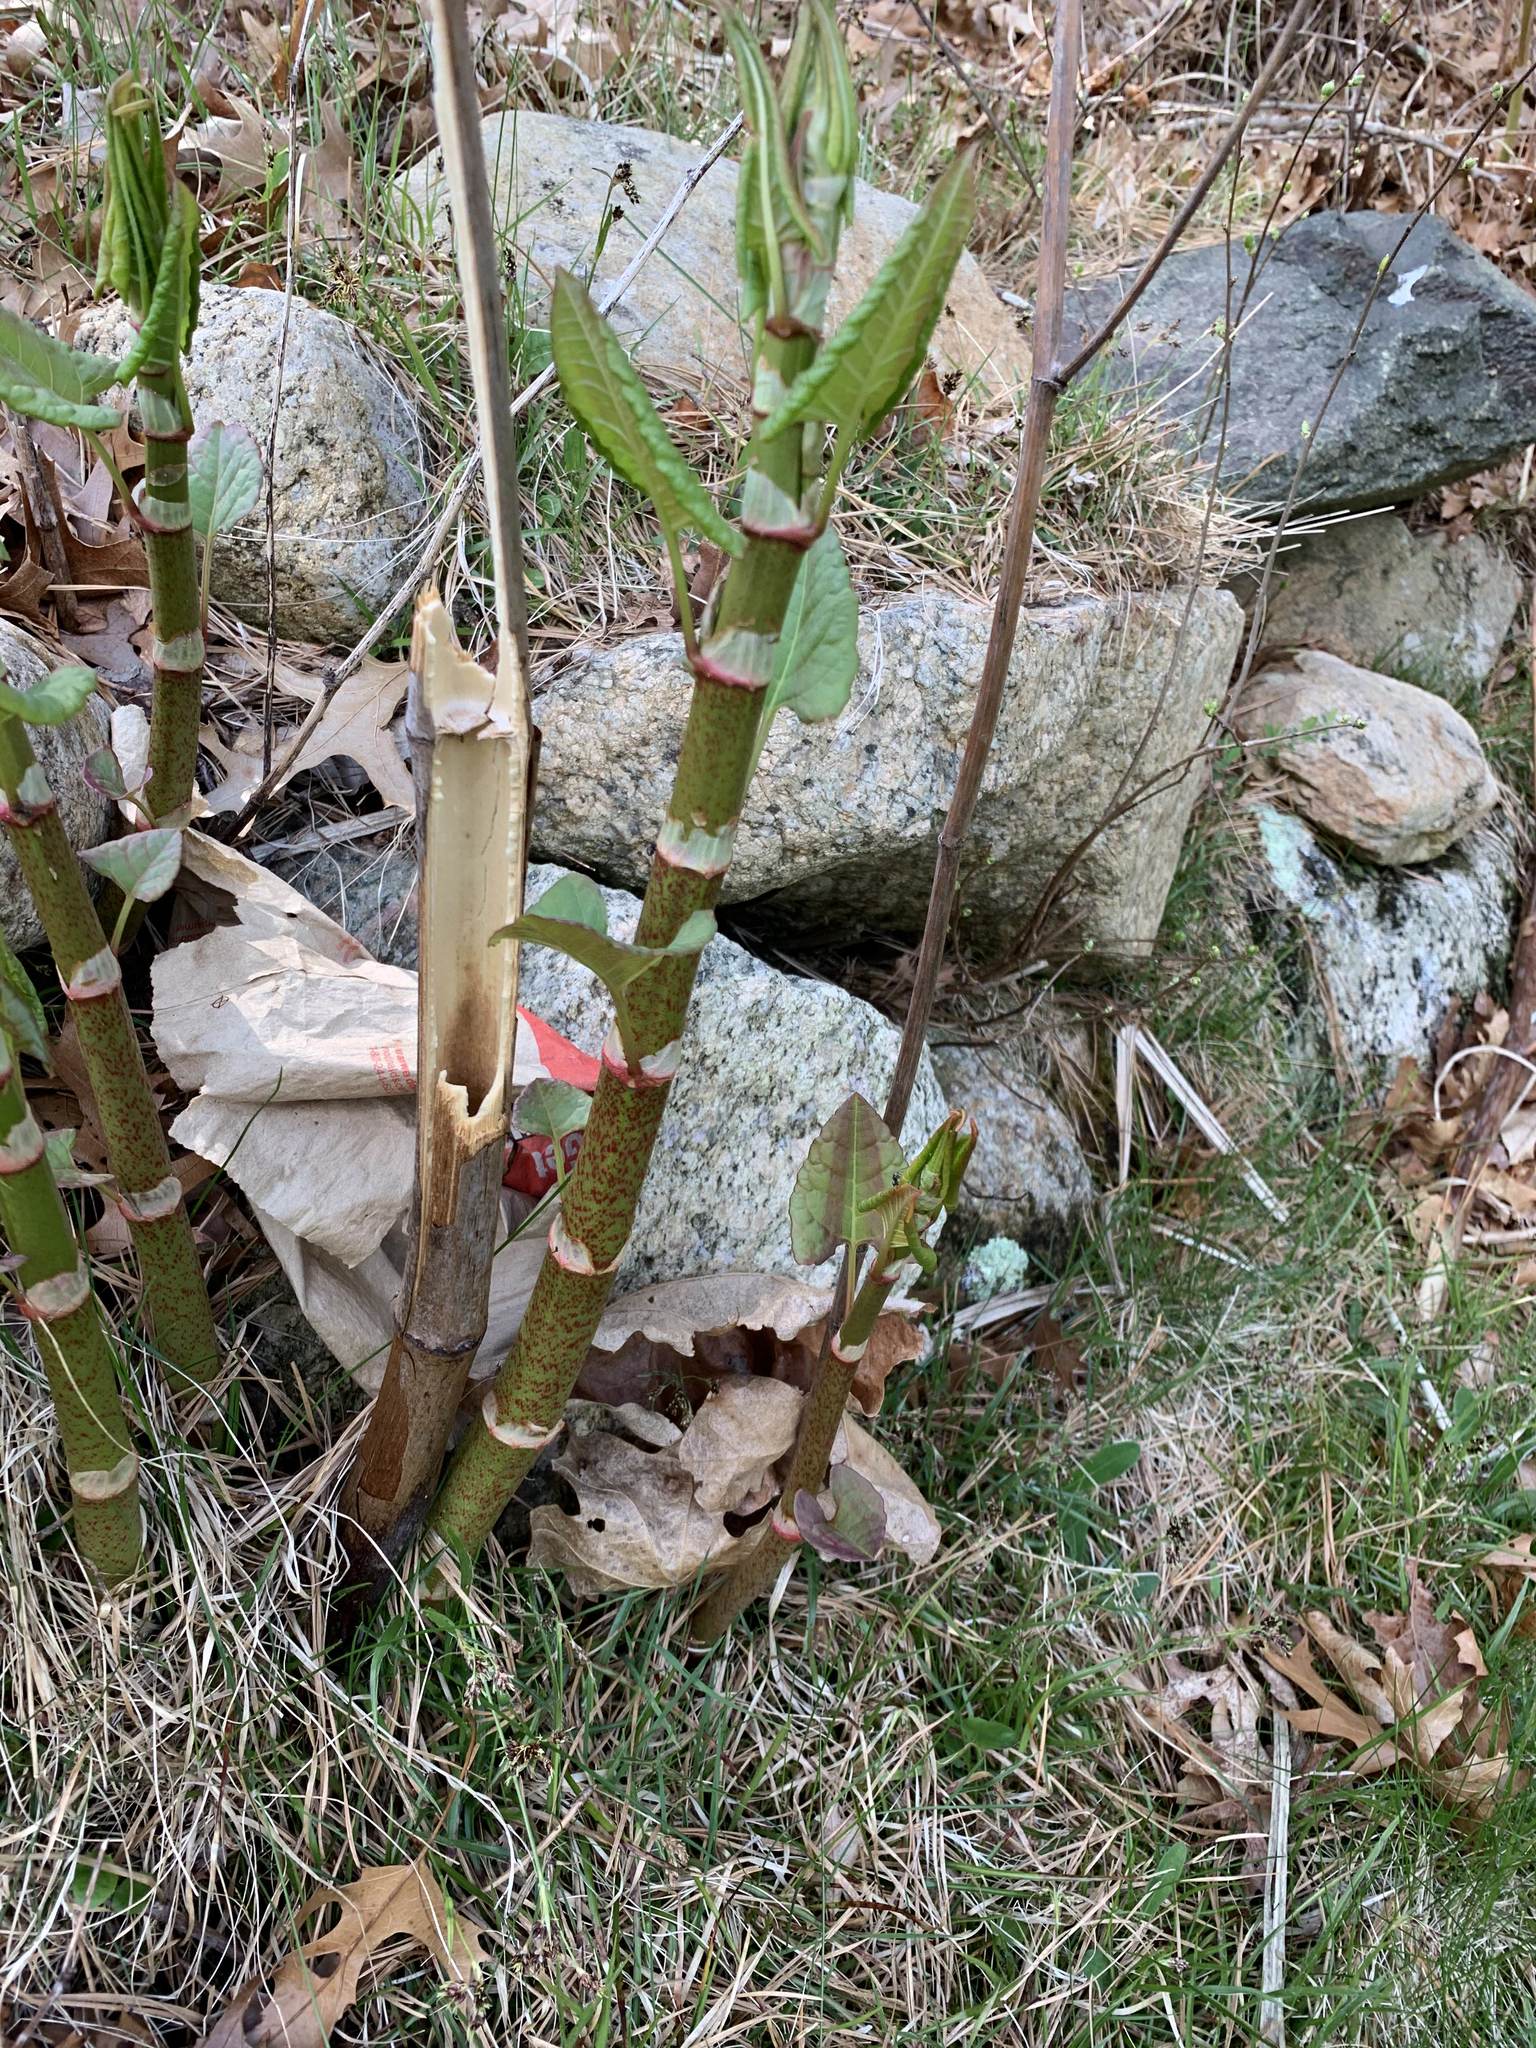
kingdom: Plantae
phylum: Tracheophyta
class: Magnoliopsida
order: Caryophyllales
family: Polygonaceae
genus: Reynoutria
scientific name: Reynoutria japonica
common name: Japanese knotweed
